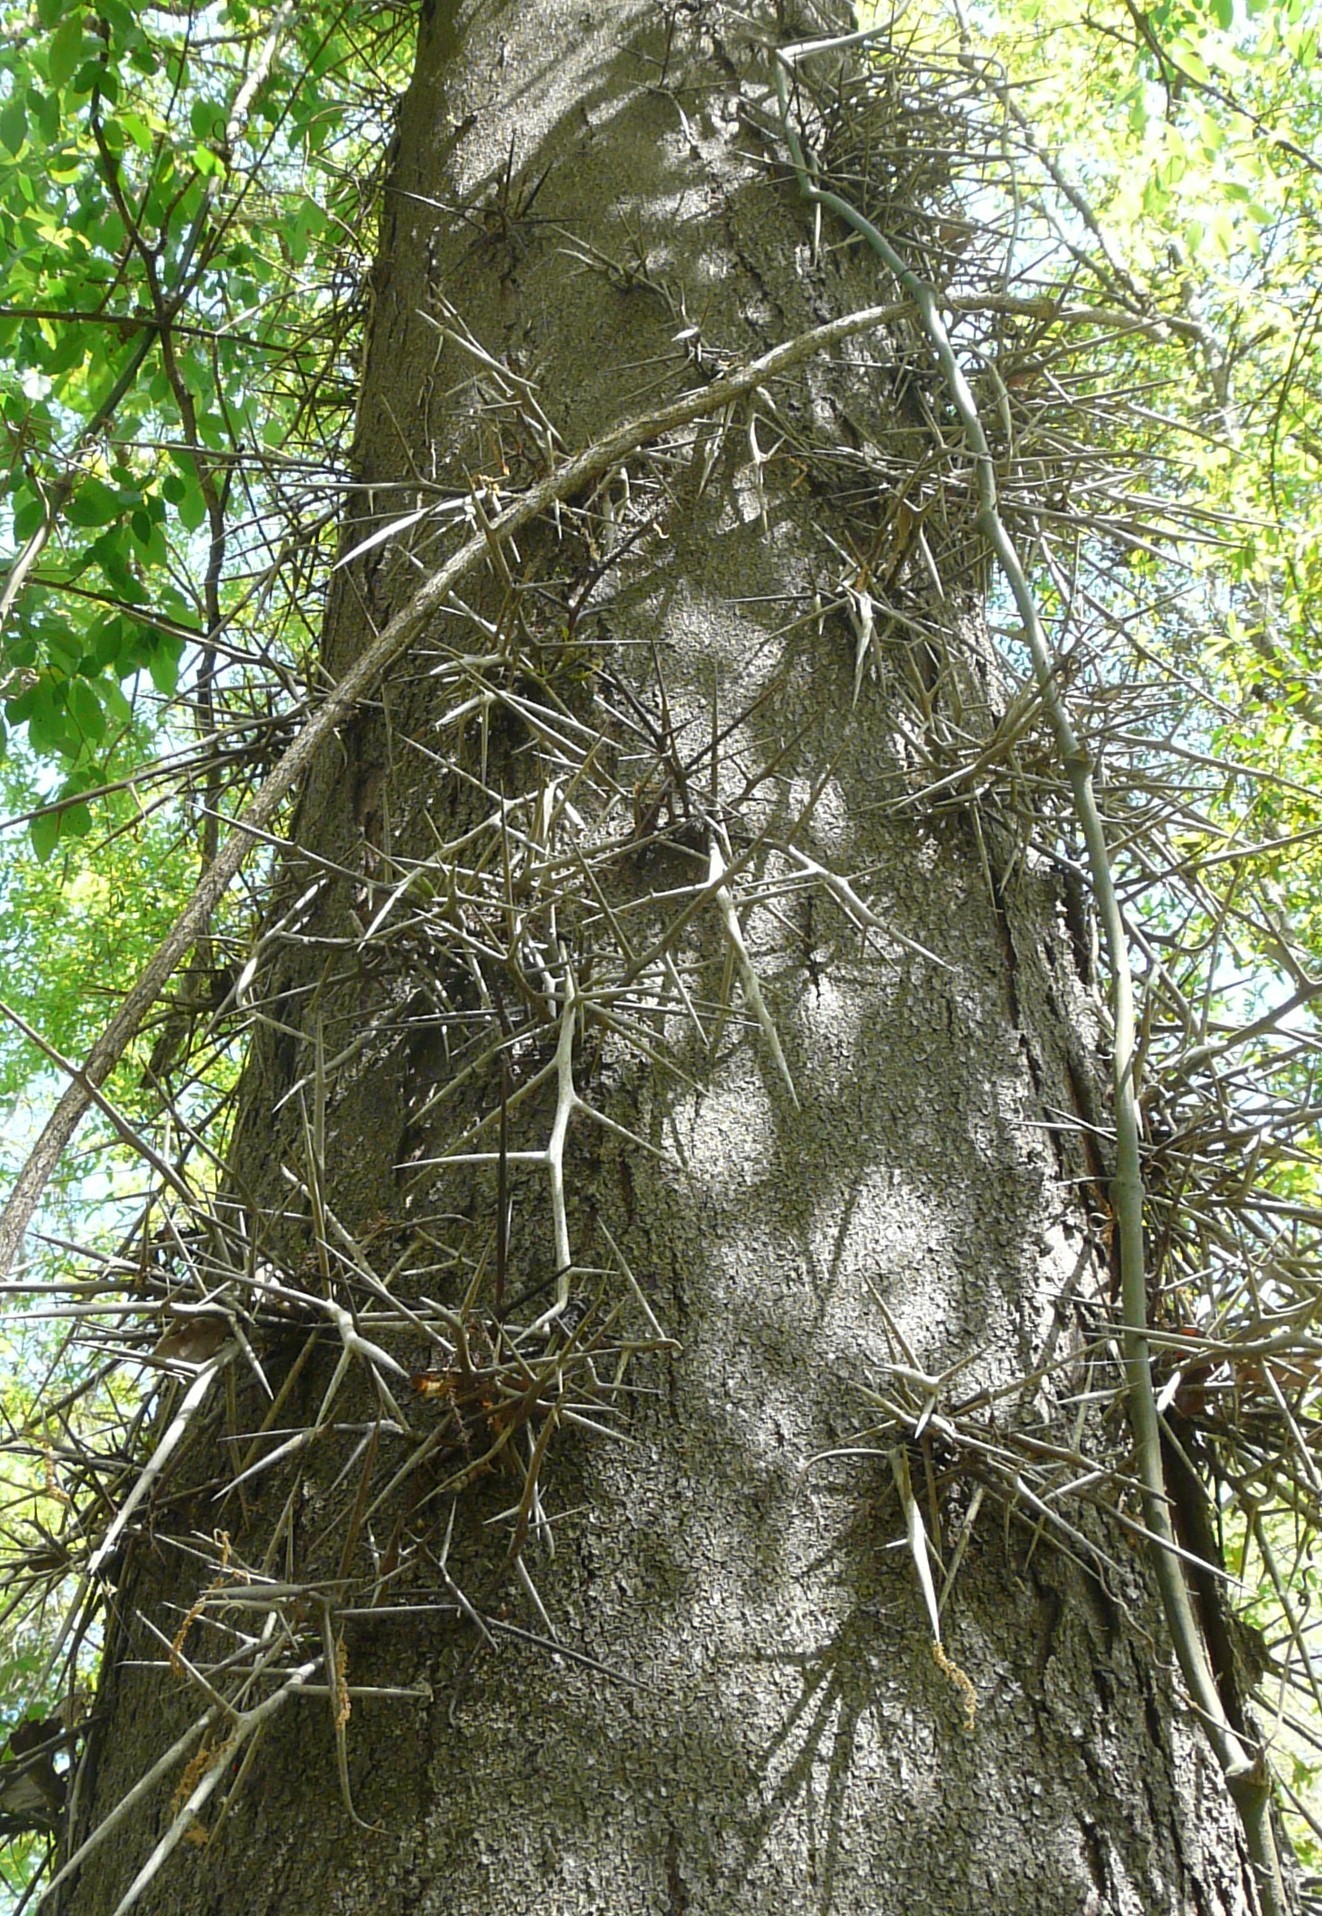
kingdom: Plantae
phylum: Tracheophyta
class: Magnoliopsida
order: Fabales
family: Fabaceae
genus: Gleditsia
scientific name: Gleditsia triacanthos
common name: Common honeylocust
